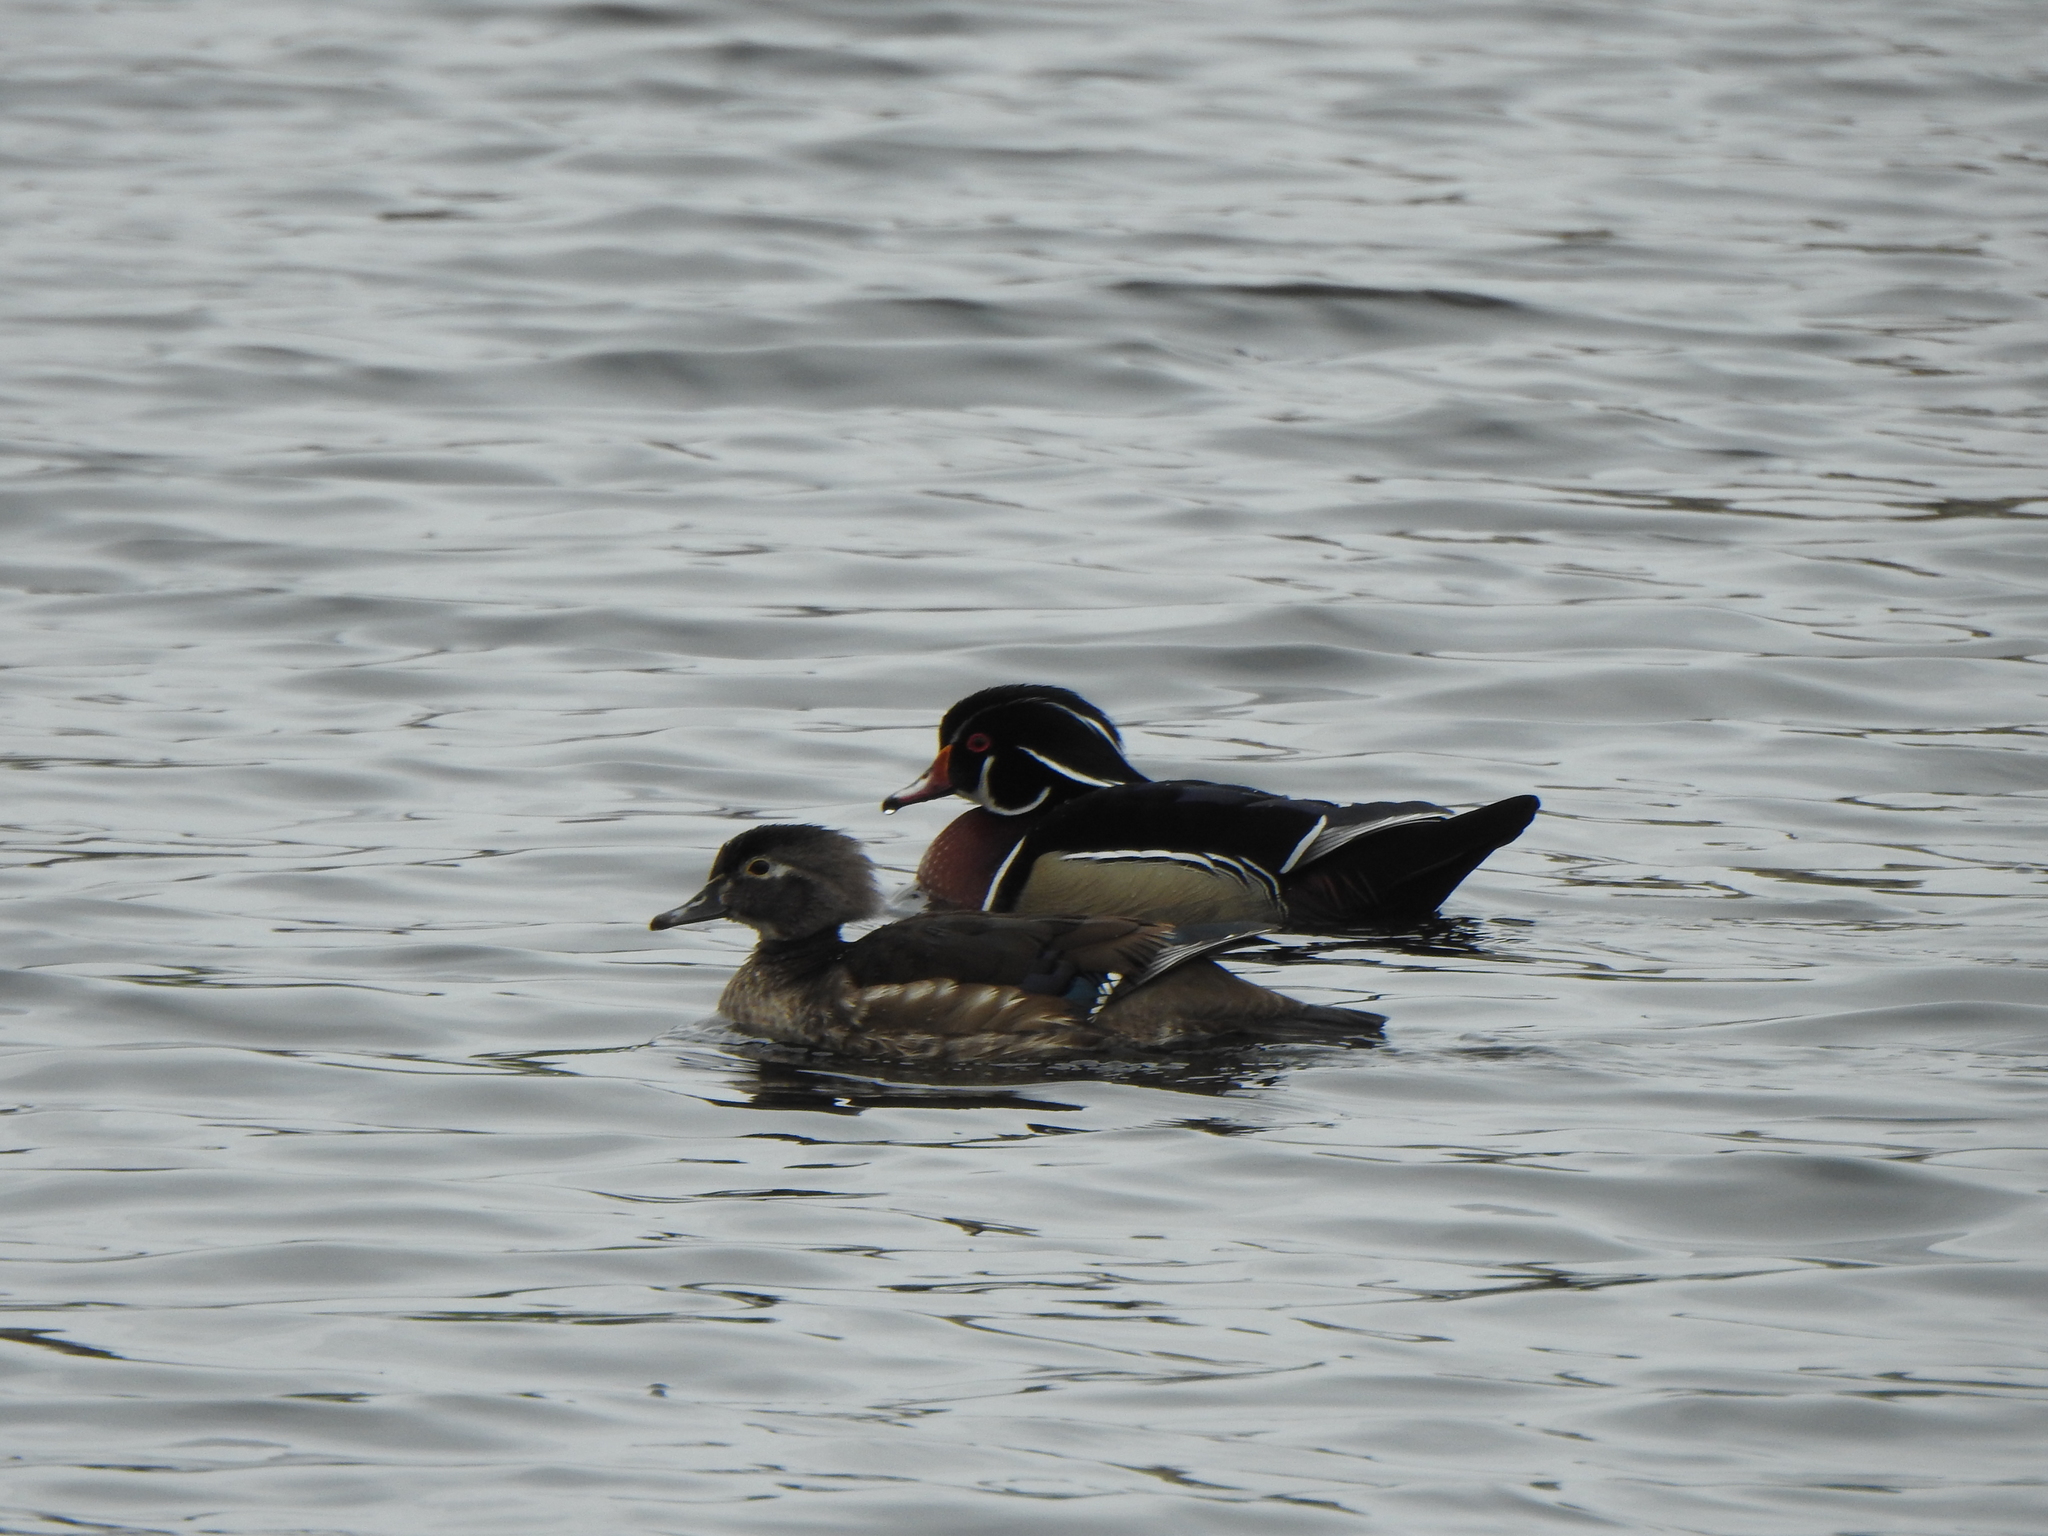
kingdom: Animalia
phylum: Chordata
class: Aves
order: Anseriformes
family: Anatidae
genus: Aix
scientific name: Aix sponsa
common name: Wood duck
